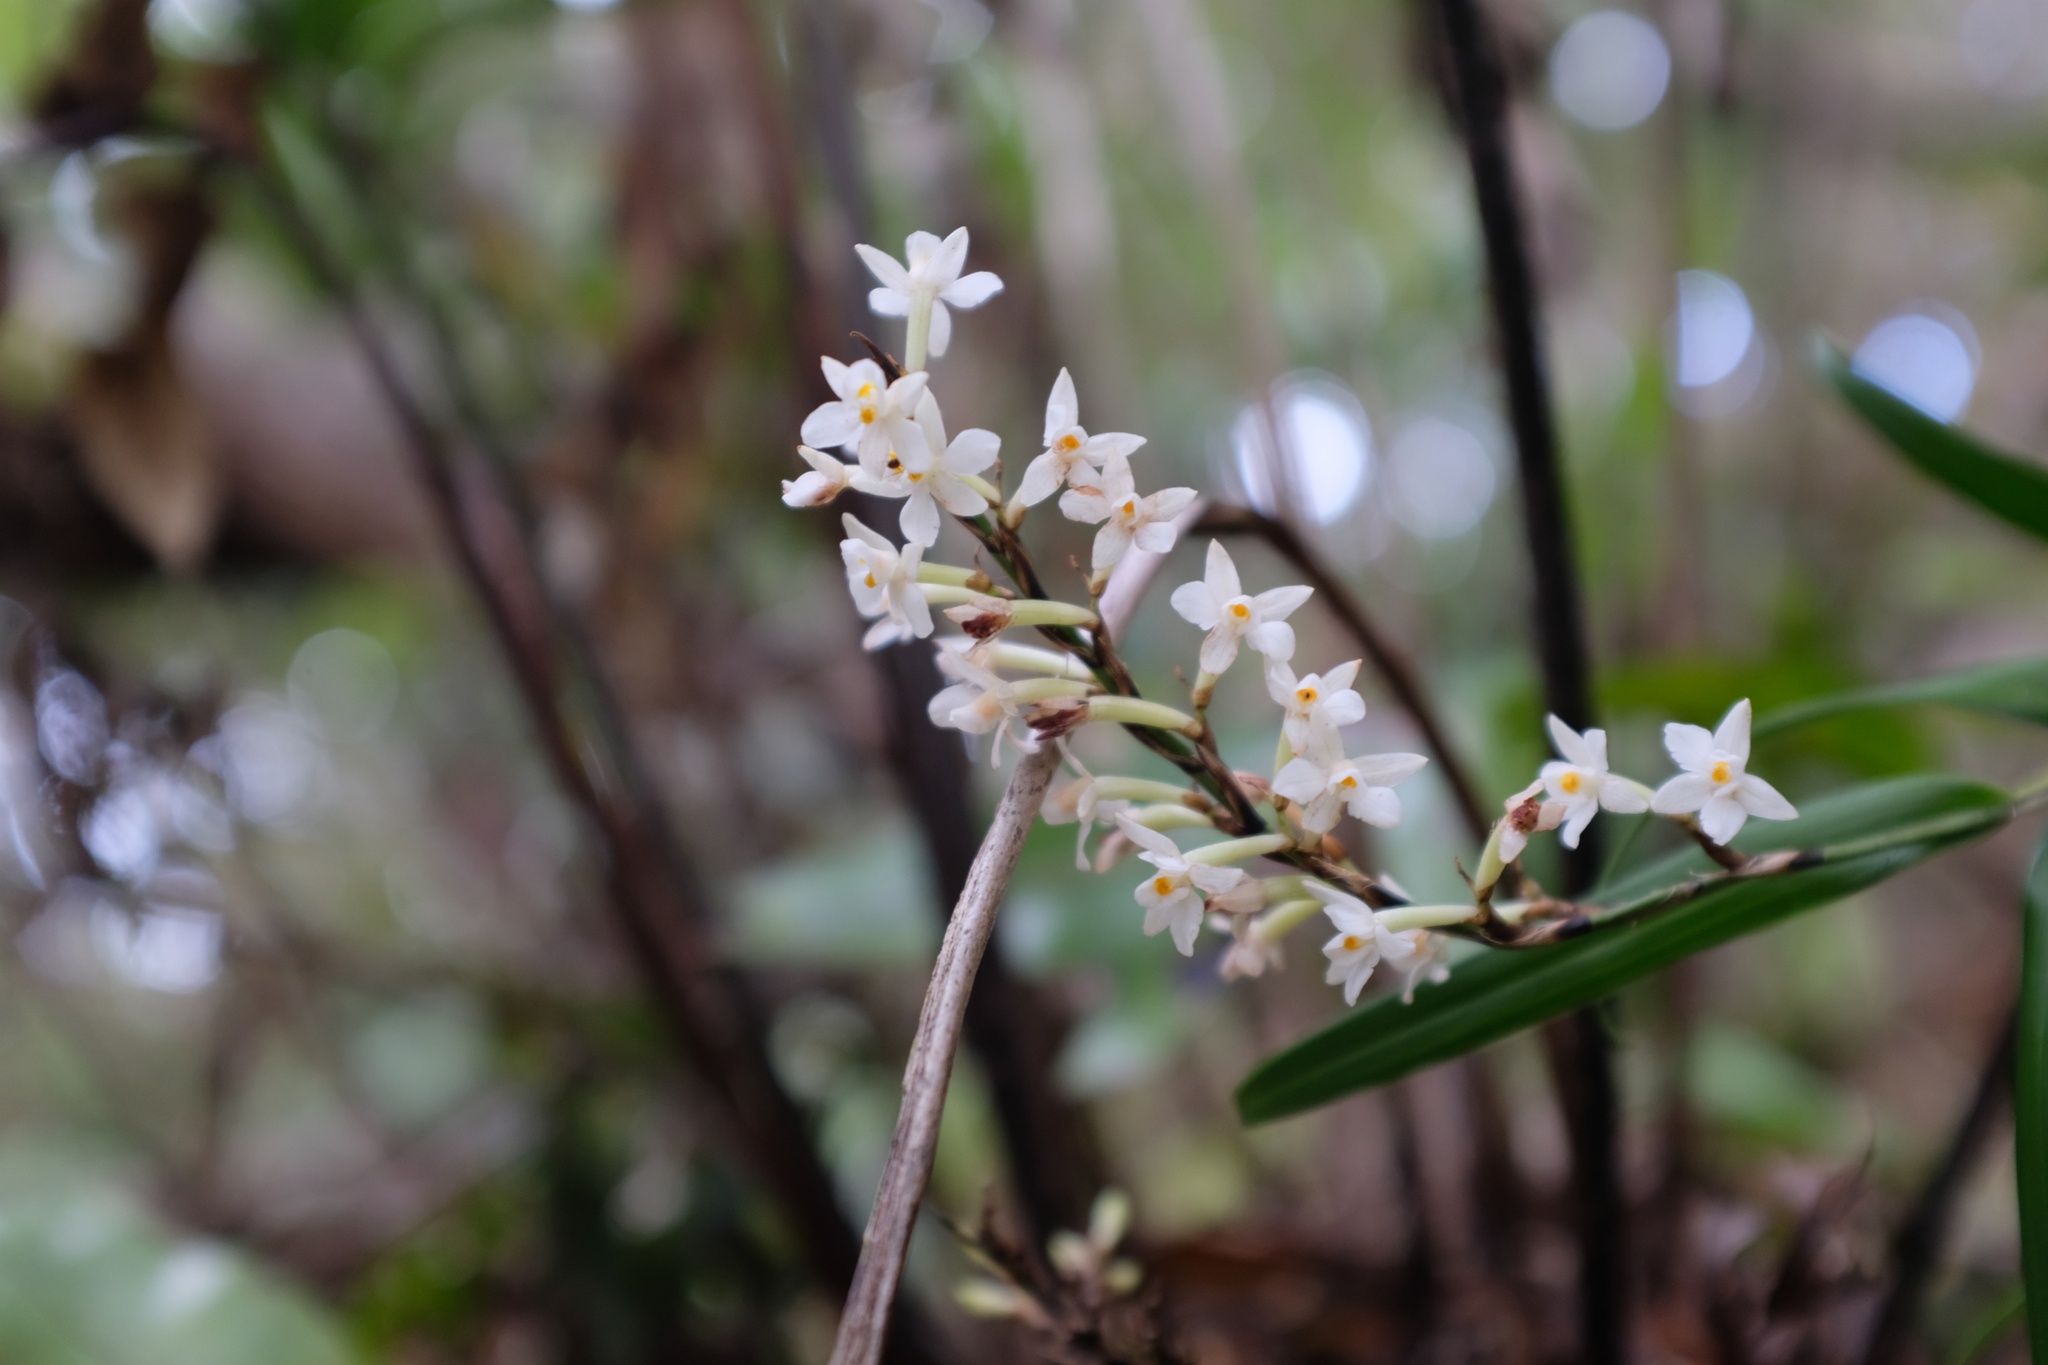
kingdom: Plantae
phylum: Tracheophyta
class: Liliopsida
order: Asparagales
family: Orchidaceae
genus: Earina
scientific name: Earina autumnalis
